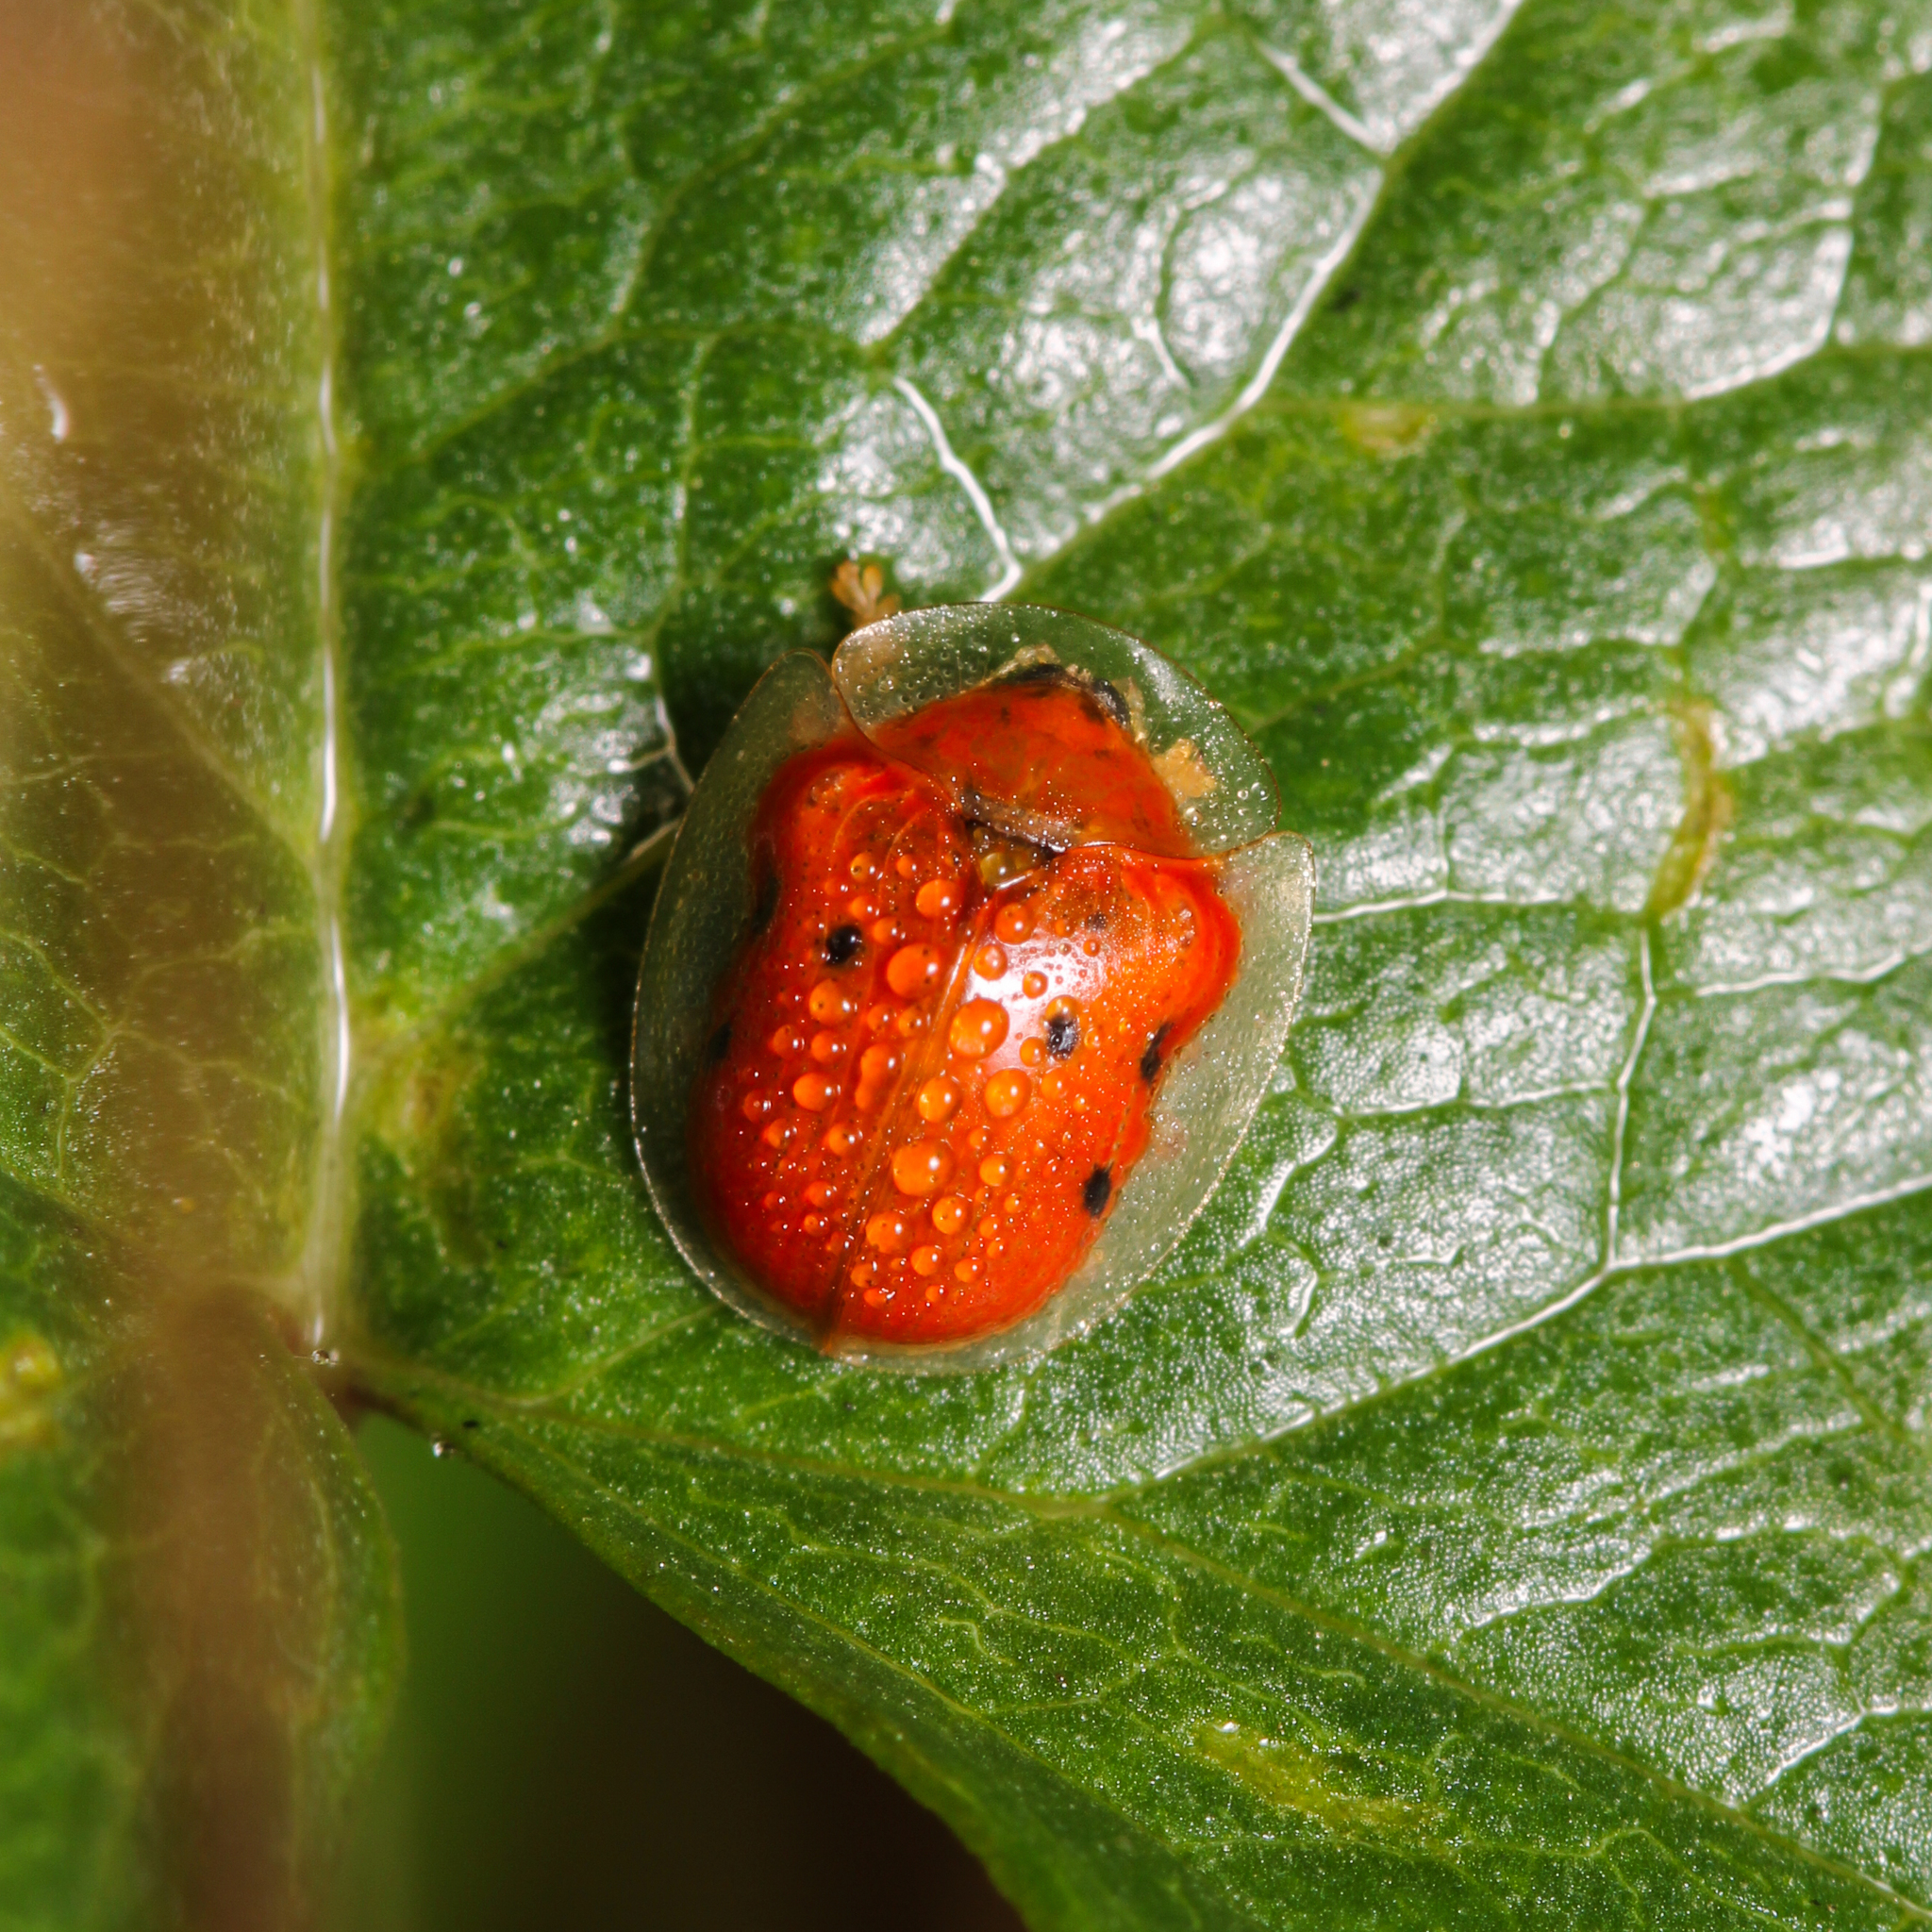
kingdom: Animalia
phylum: Arthropoda
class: Insecta
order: Coleoptera
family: Chrysomelidae
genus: Charidotella
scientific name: Charidotella sexpunctata
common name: Golden tortoise beetle
